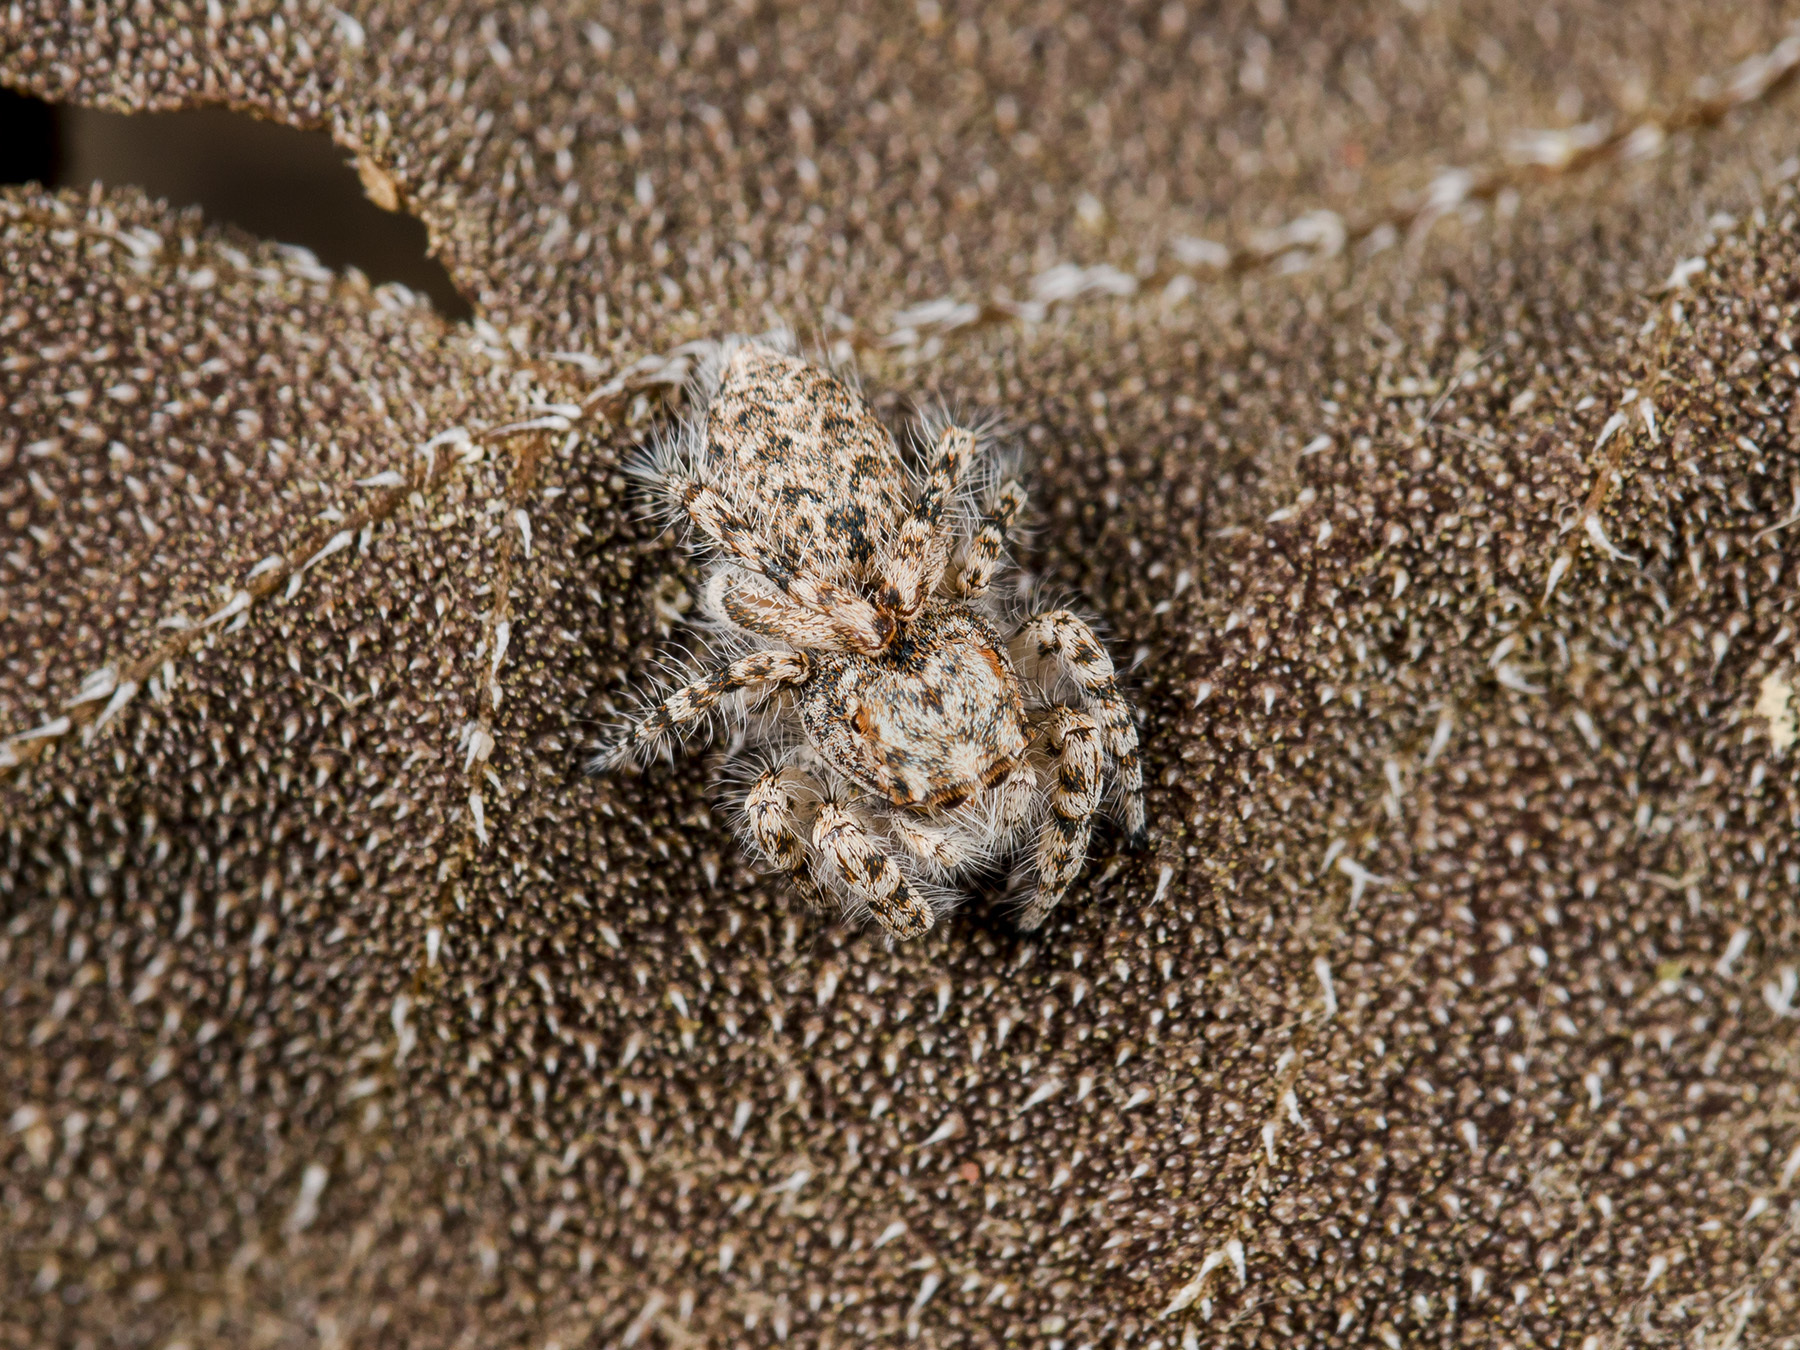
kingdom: Animalia
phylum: Arthropoda
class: Arachnida
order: Araneae
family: Salticidae
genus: Yllenus
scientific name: Yllenus uiguricus
